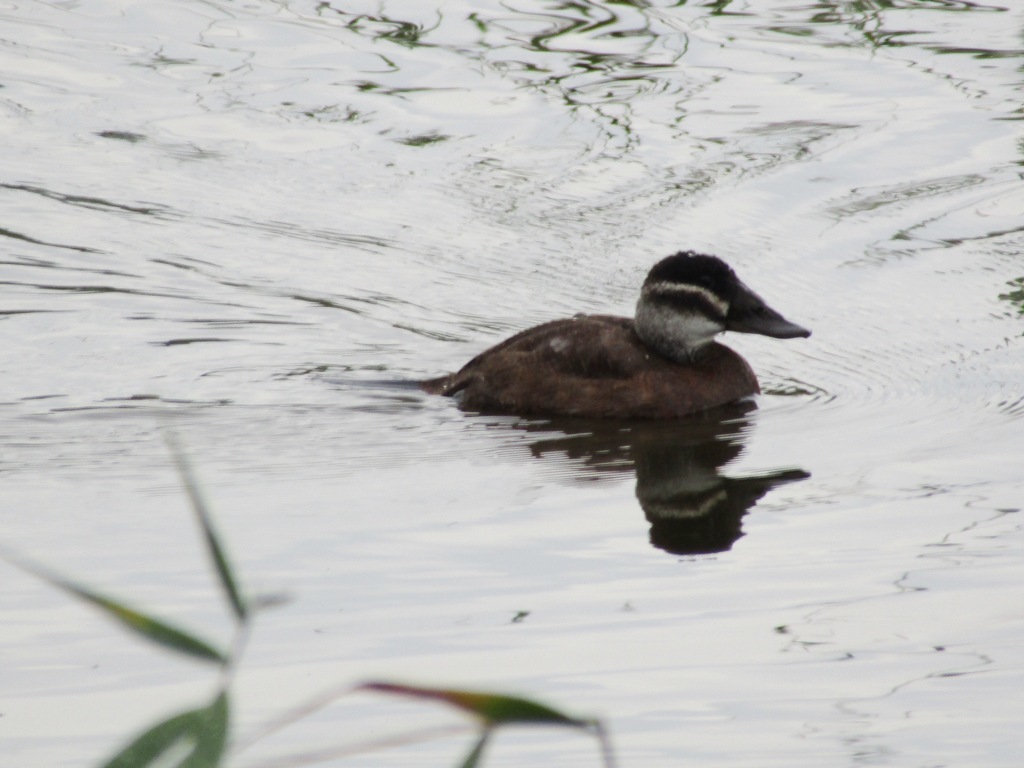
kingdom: Animalia
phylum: Chordata
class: Aves
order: Anseriformes
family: Anatidae
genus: Oxyura
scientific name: Oxyura leucocephala
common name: White-headed duck
